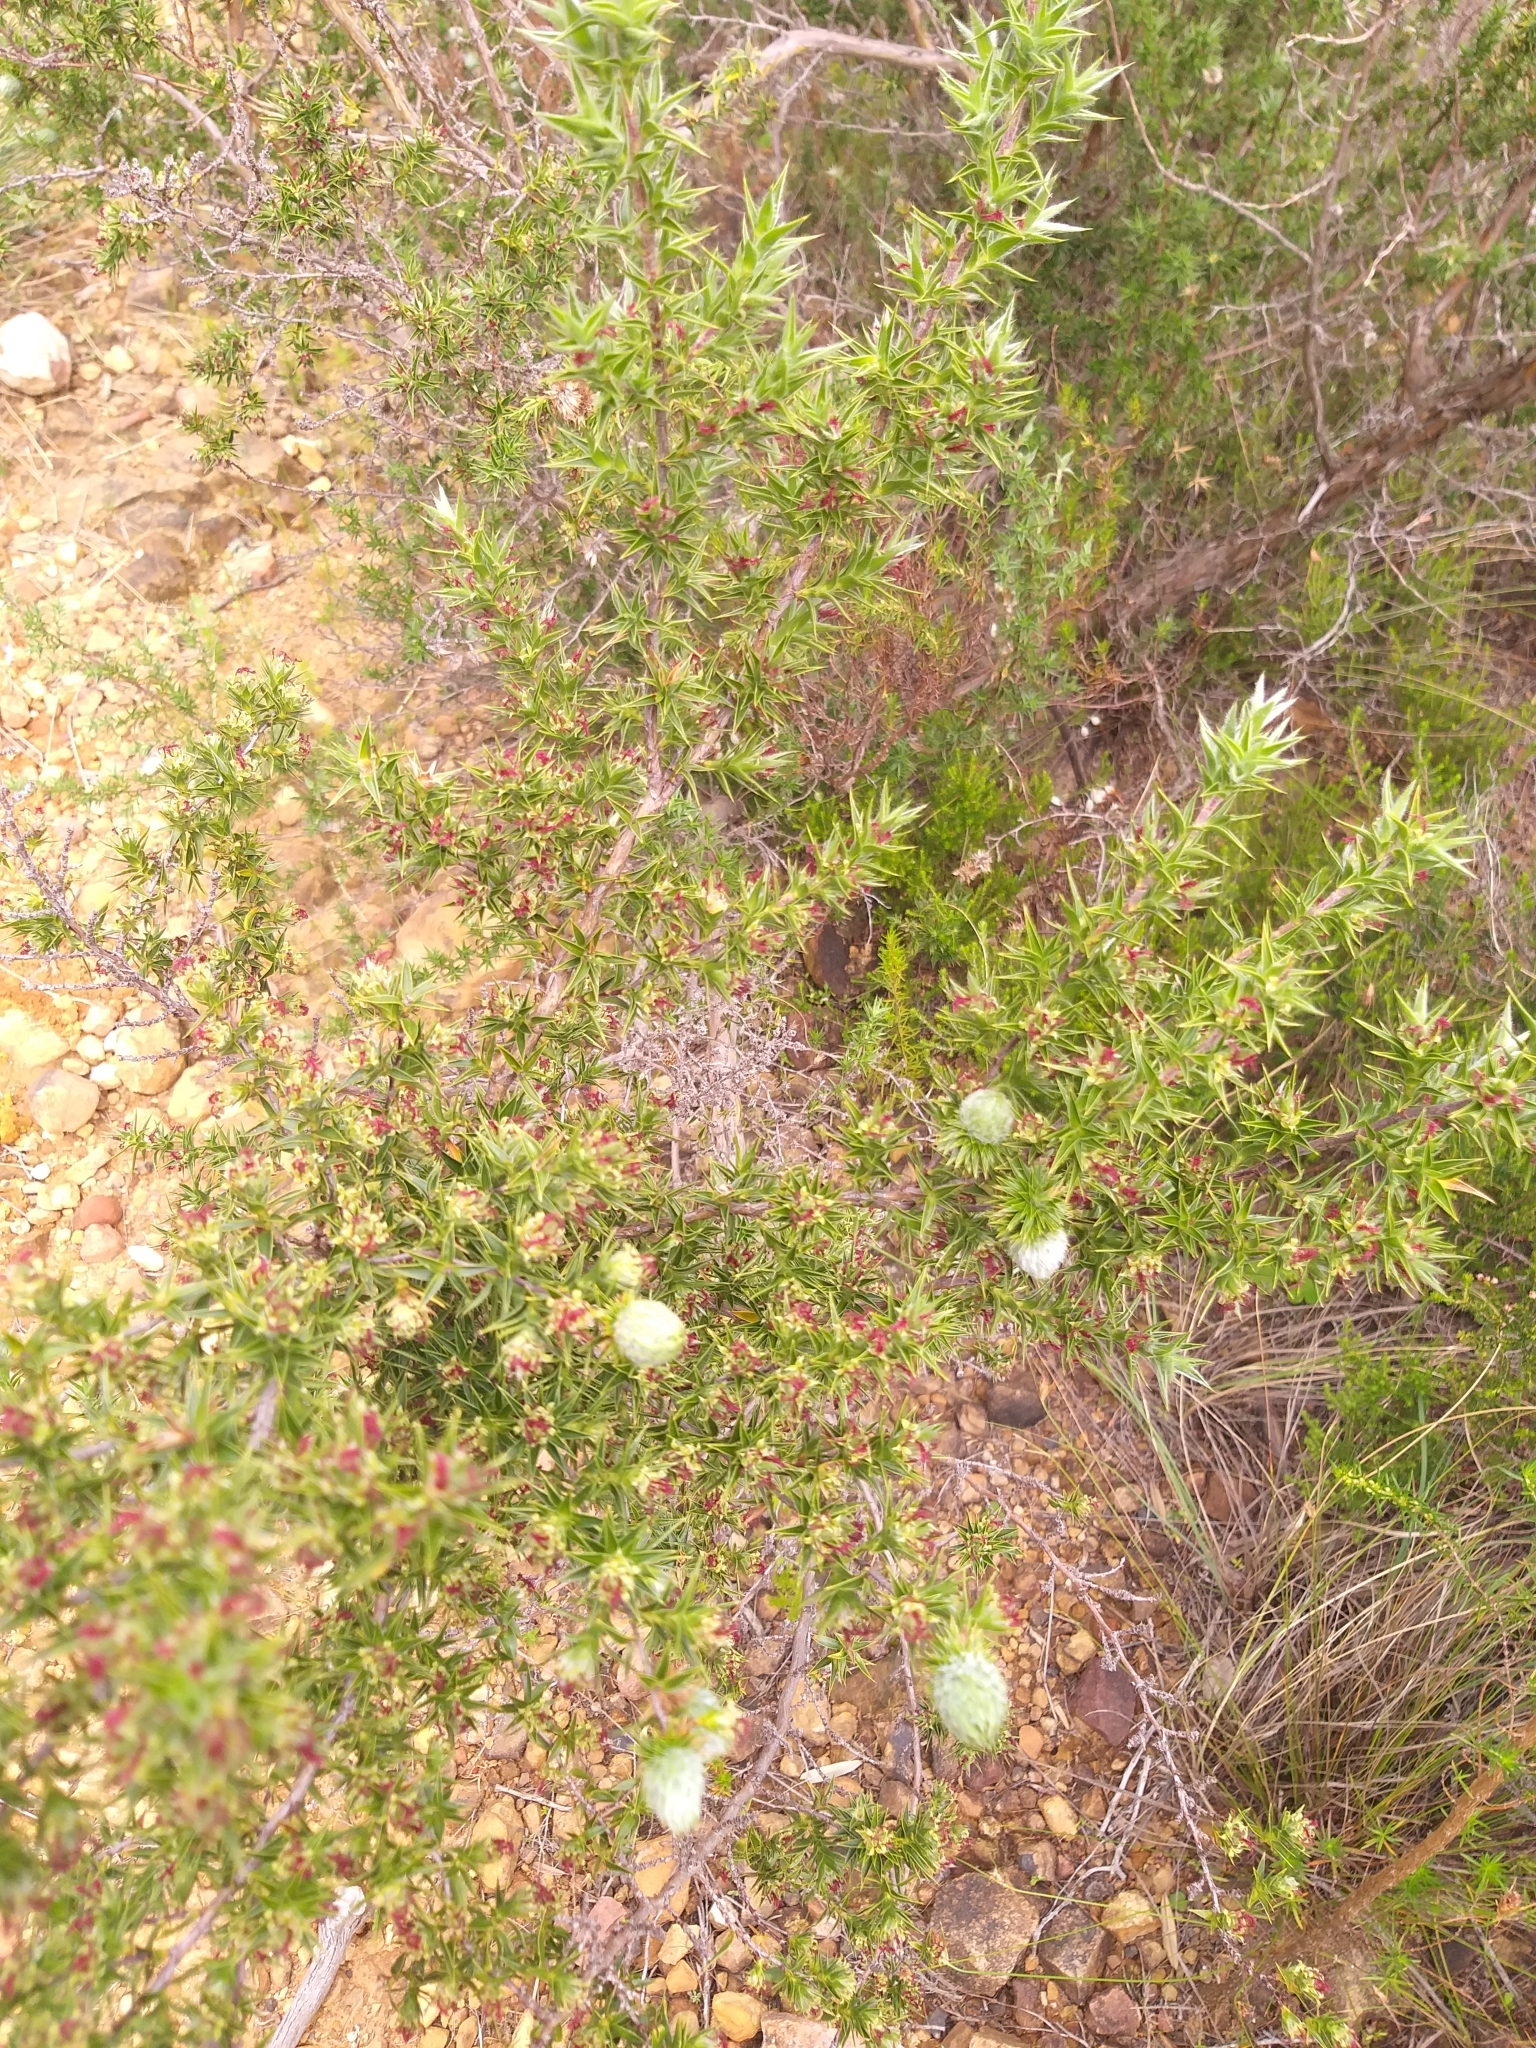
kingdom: Plantae
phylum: Tracheophyta
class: Magnoliopsida
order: Rosales
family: Rosaceae
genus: Cliffortia
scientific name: Cliffortia ruscifolia
